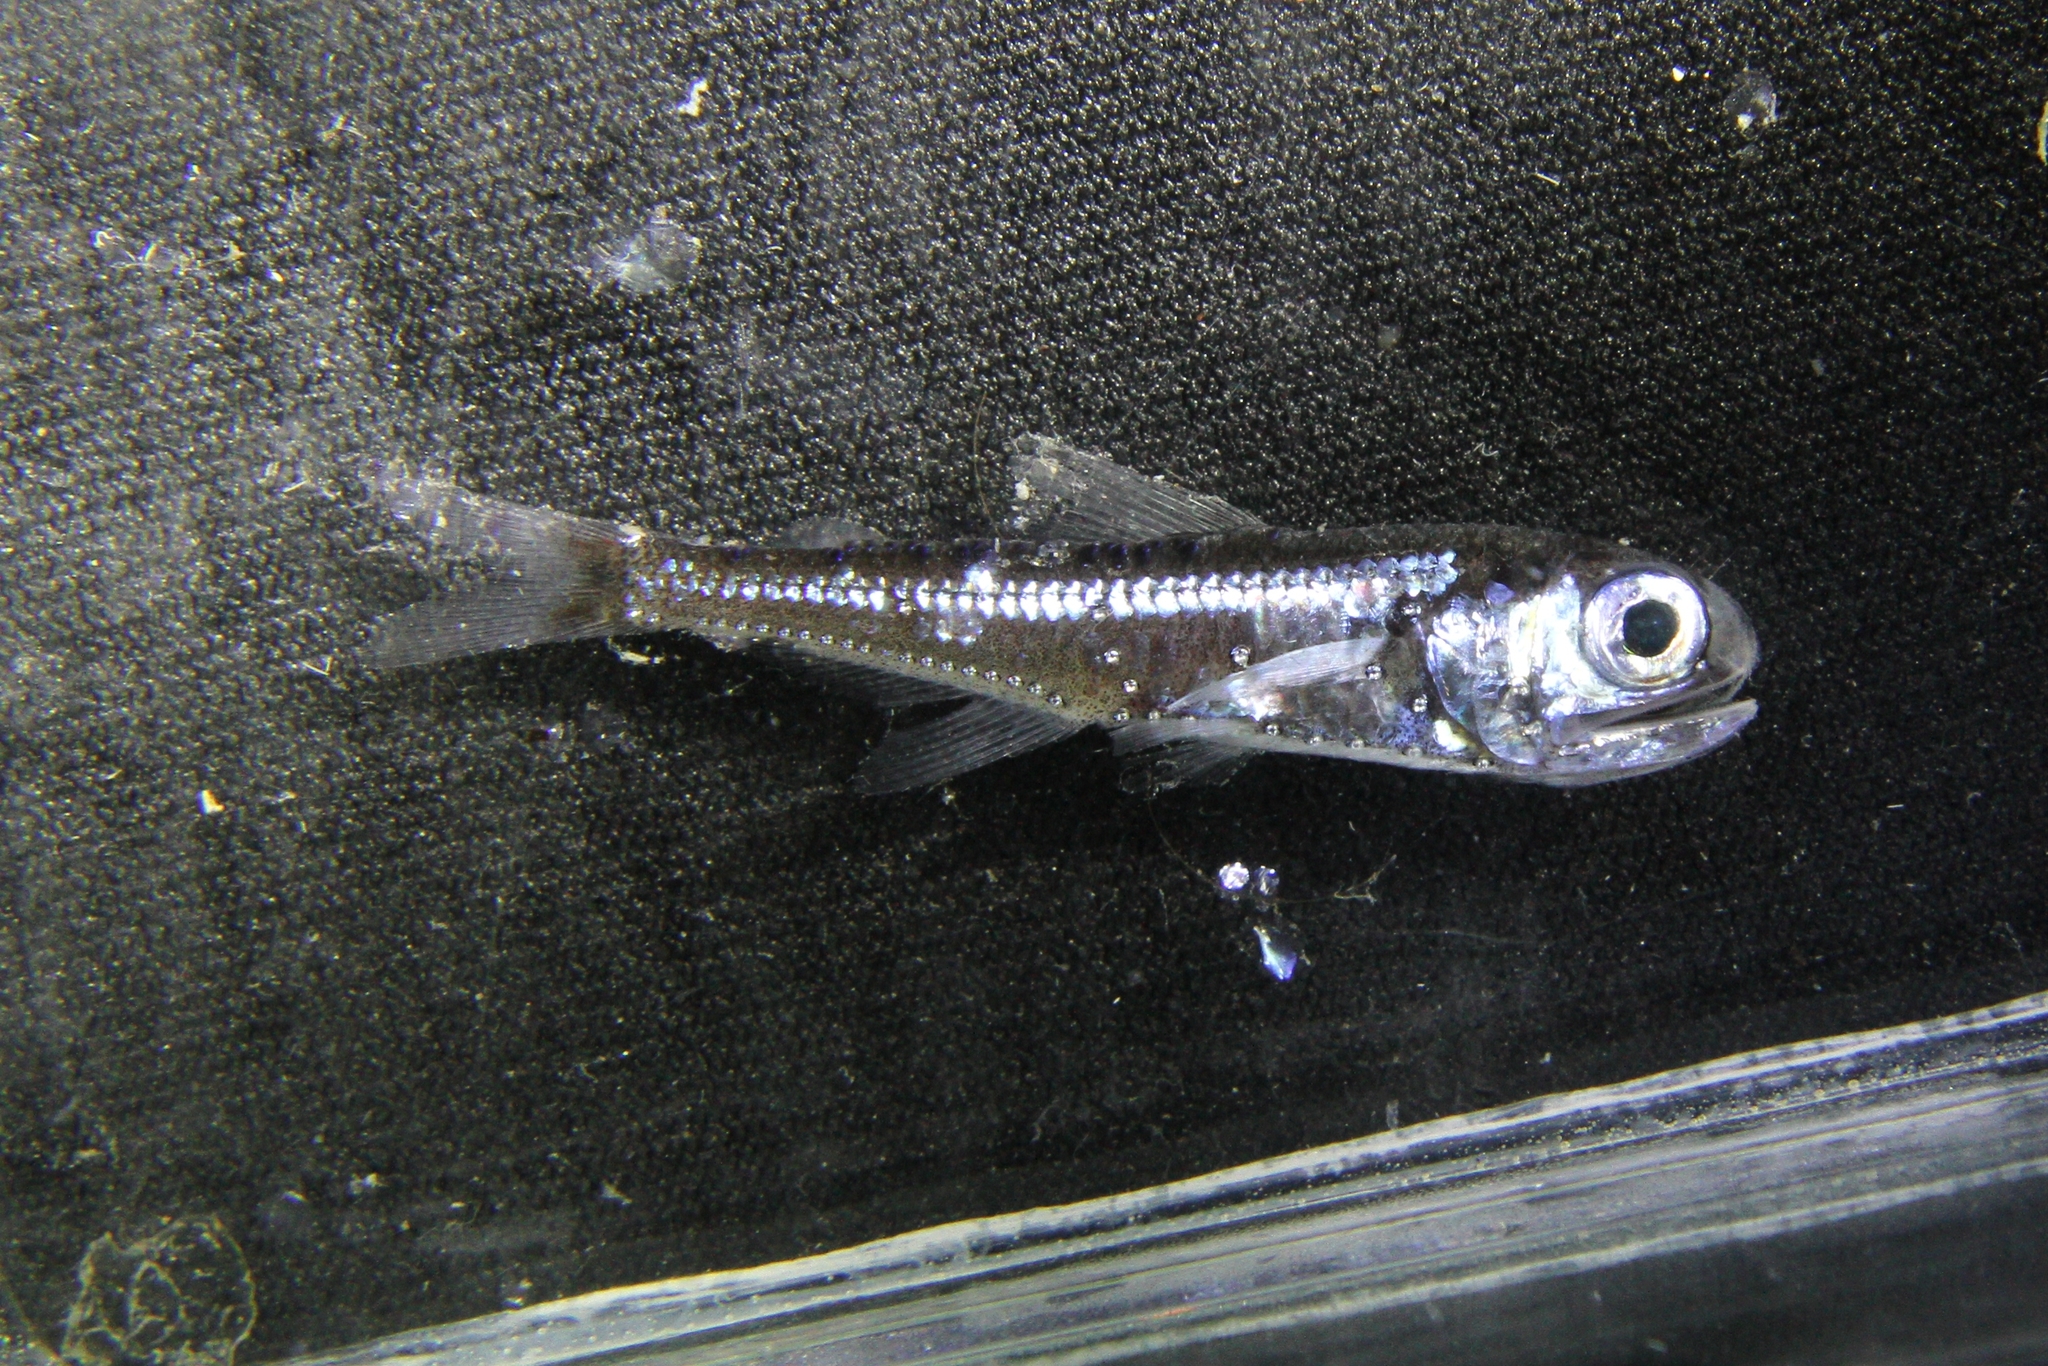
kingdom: Animalia
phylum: Chordata
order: Myctophiformes
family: Myctophidae
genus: Myctophum
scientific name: Myctophum punctatum
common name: Spotted lanternfish
